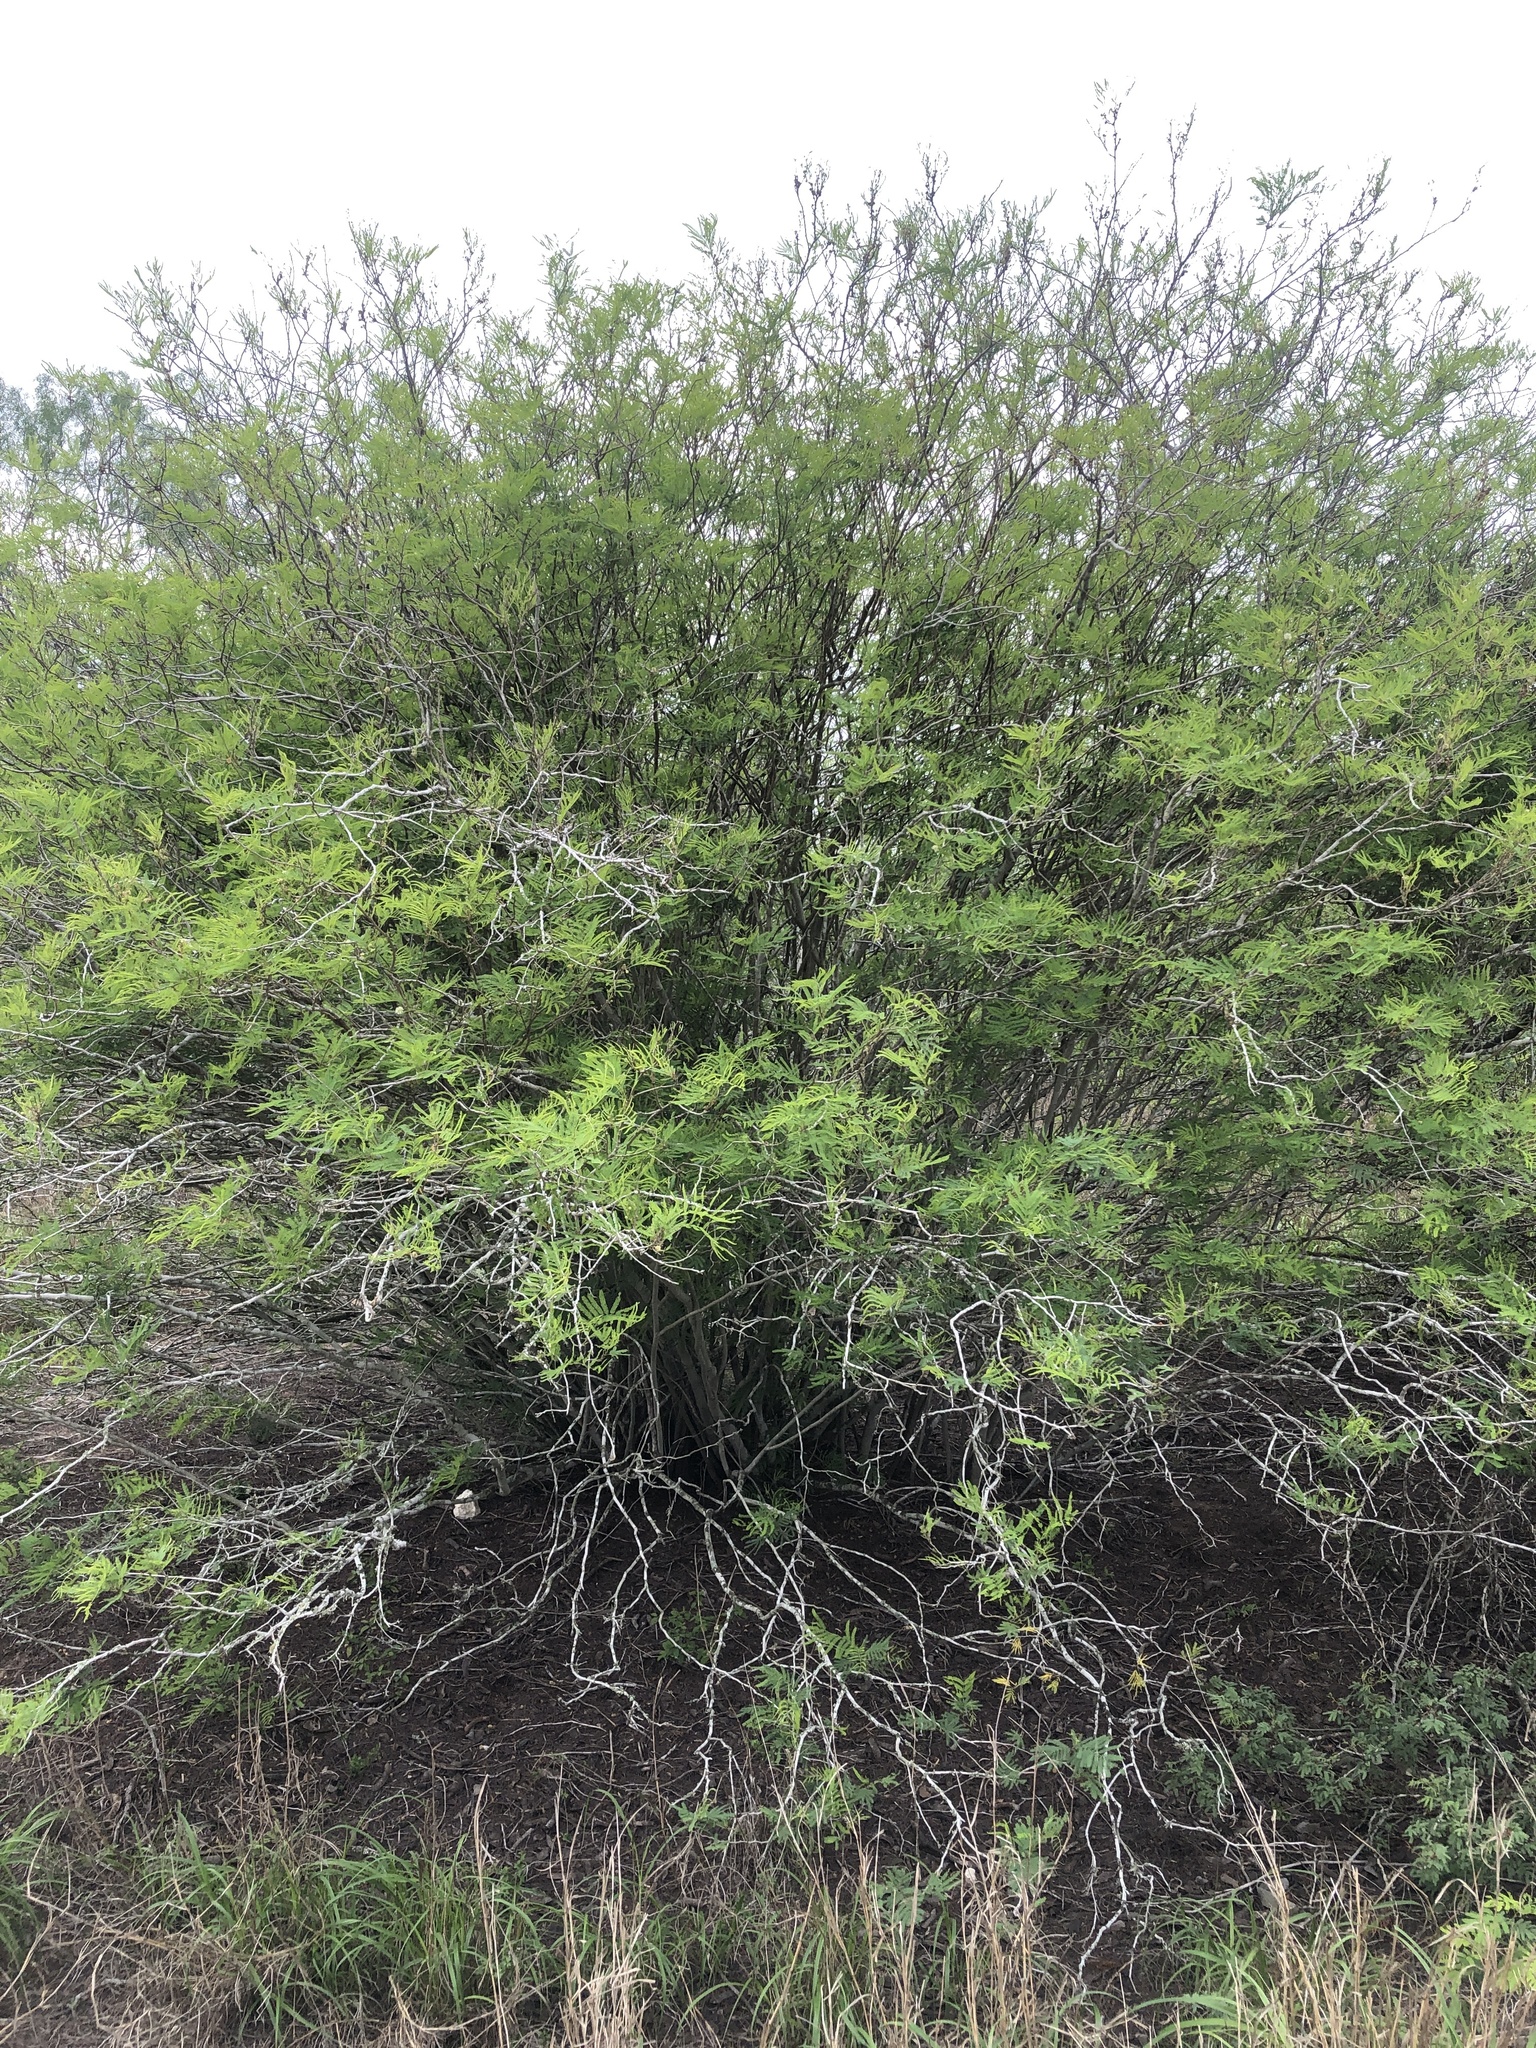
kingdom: Plantae
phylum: Tracheophyta
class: Magnoliopsida
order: Fabales
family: Fabaceae
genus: Senegalia
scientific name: Senegalia berlandieri
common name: Berlandier acacia
